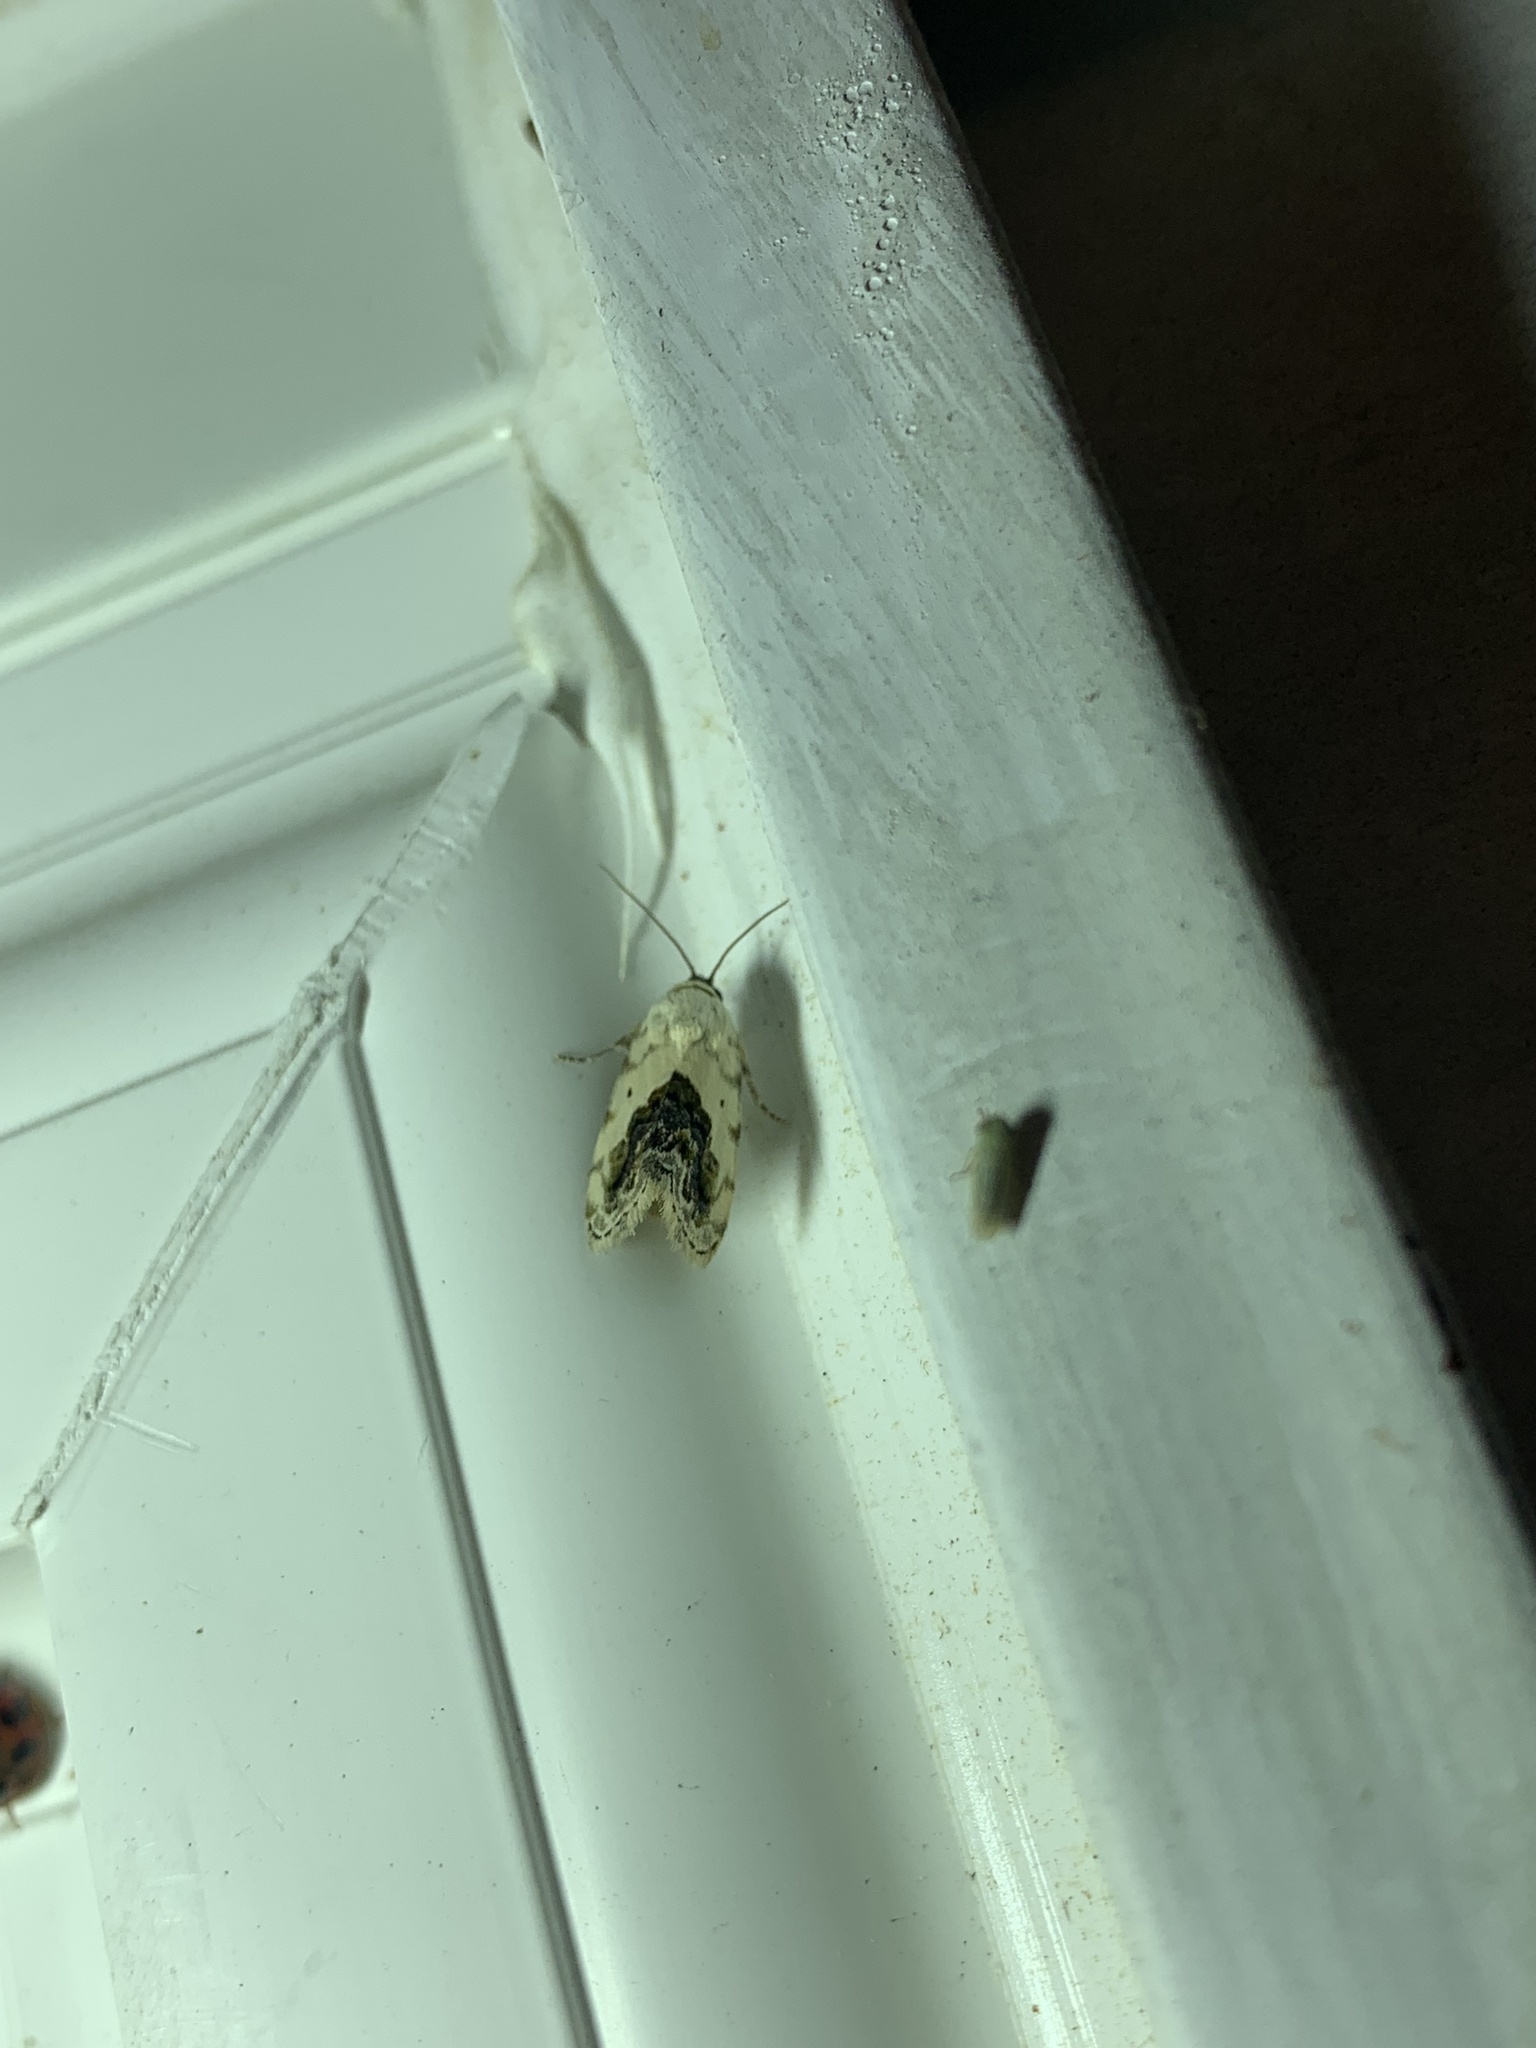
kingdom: Animalia
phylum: Arthropoda
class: Insecta
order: Lepidoptera
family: Noctuidae
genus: Acontia
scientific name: Acontia erastrioides
